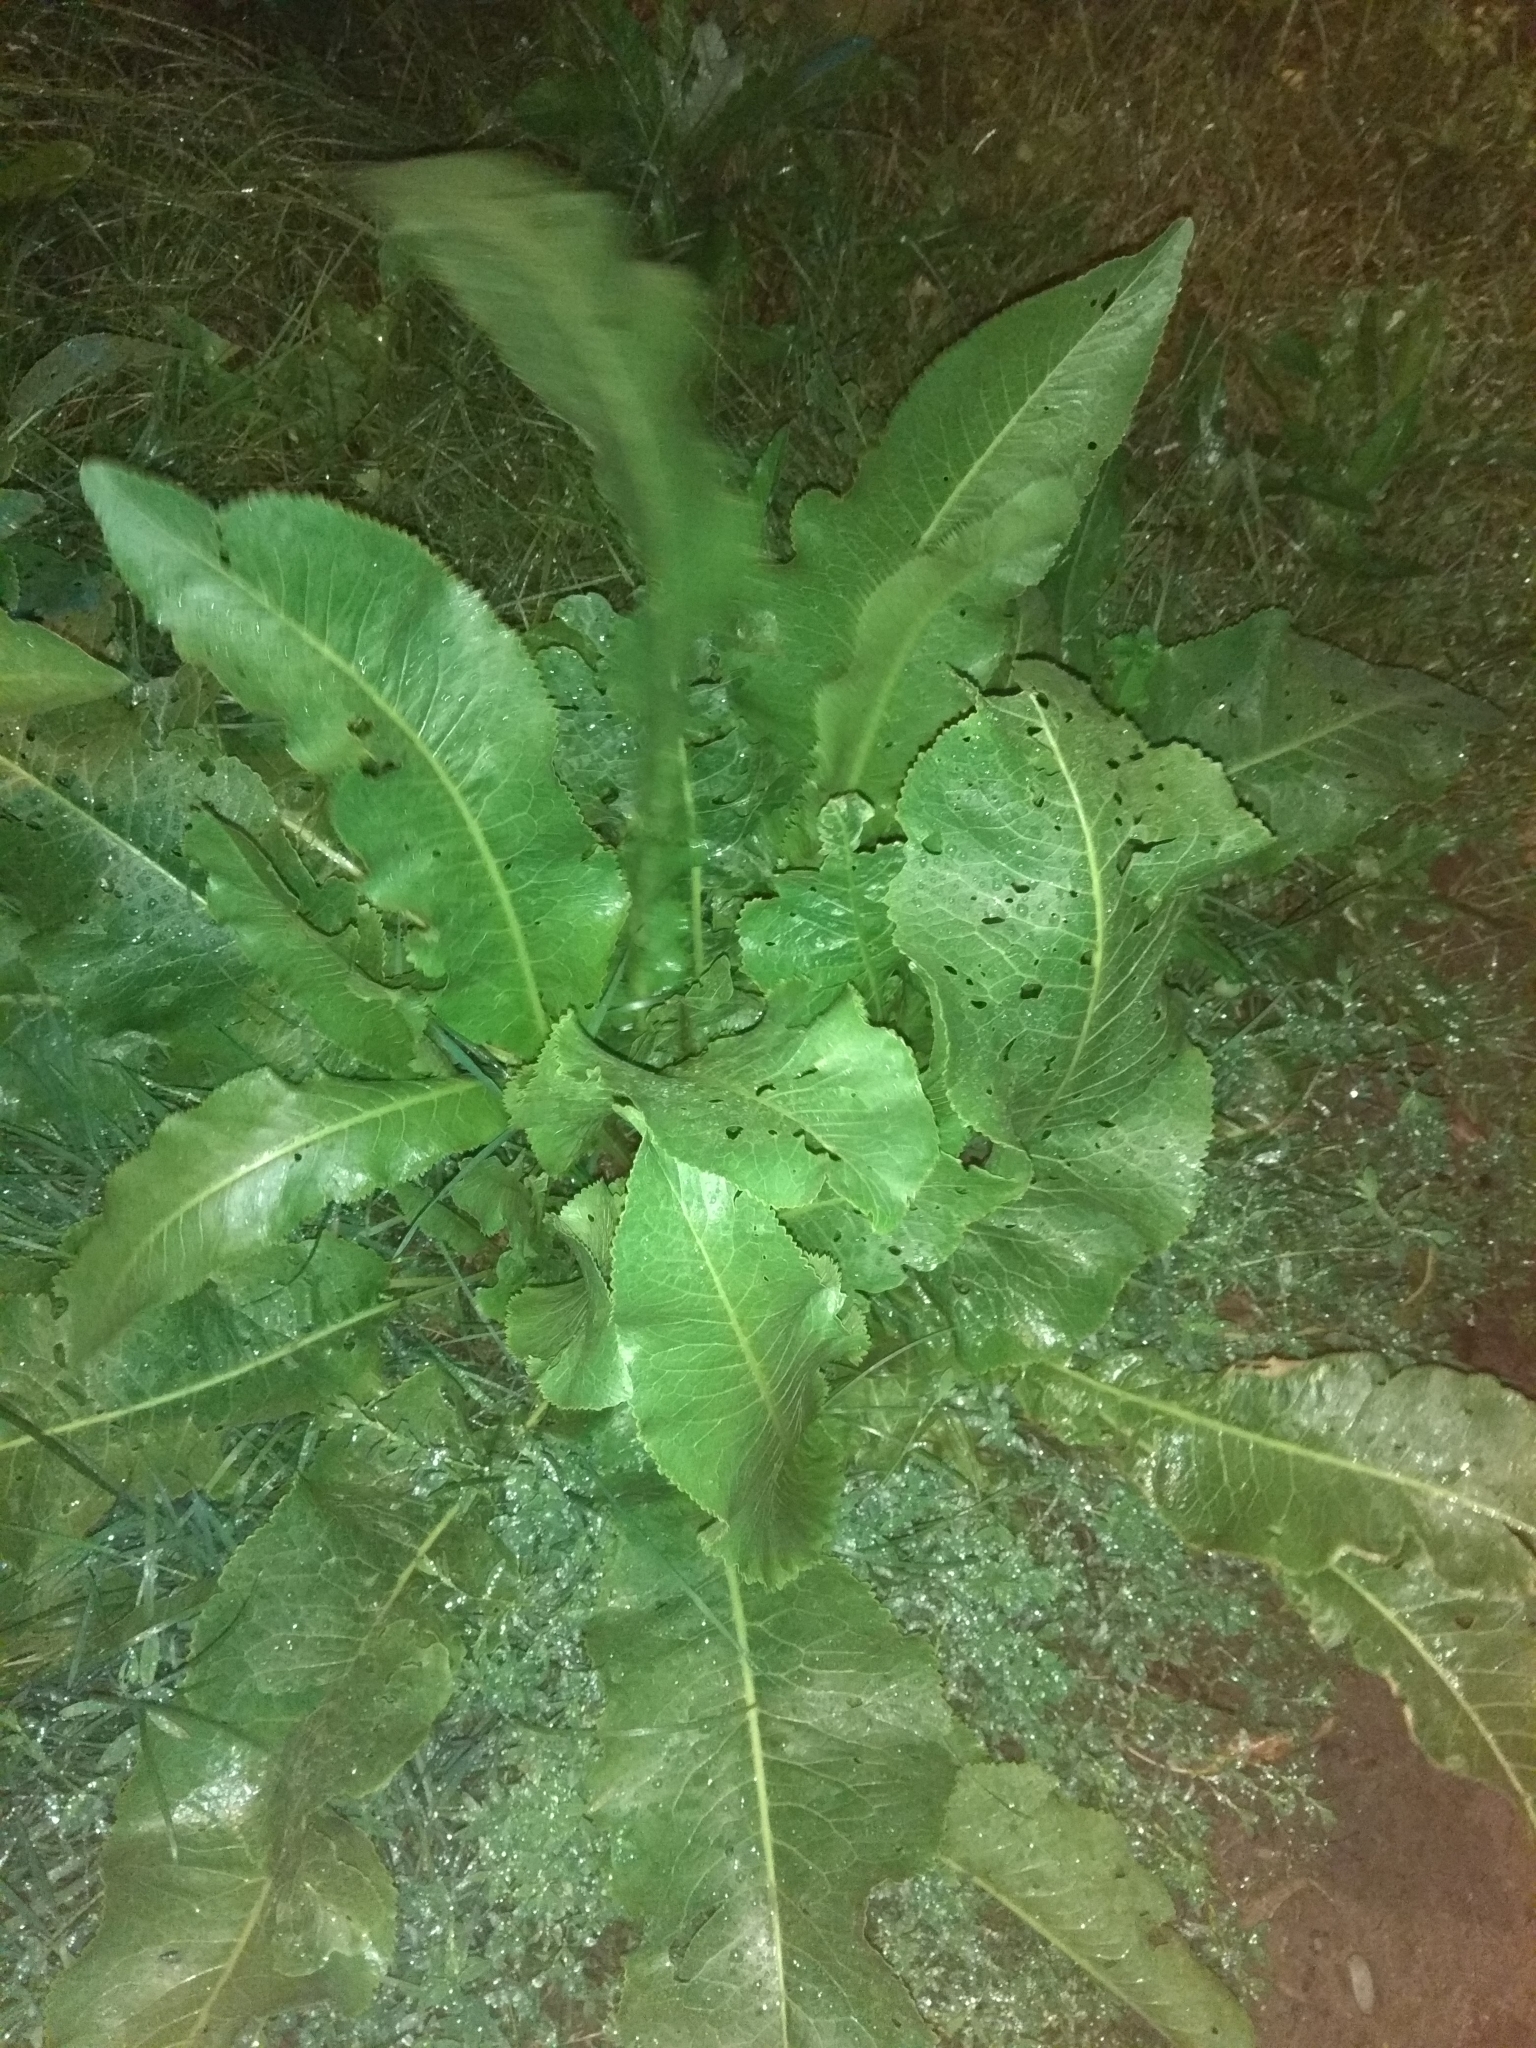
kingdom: Plantae
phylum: Tracheophyta
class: Magnoliopsida
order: Brassicales
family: Brassicaceae
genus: Armoracia
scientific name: Armoracia rusticana
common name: Horseradish
